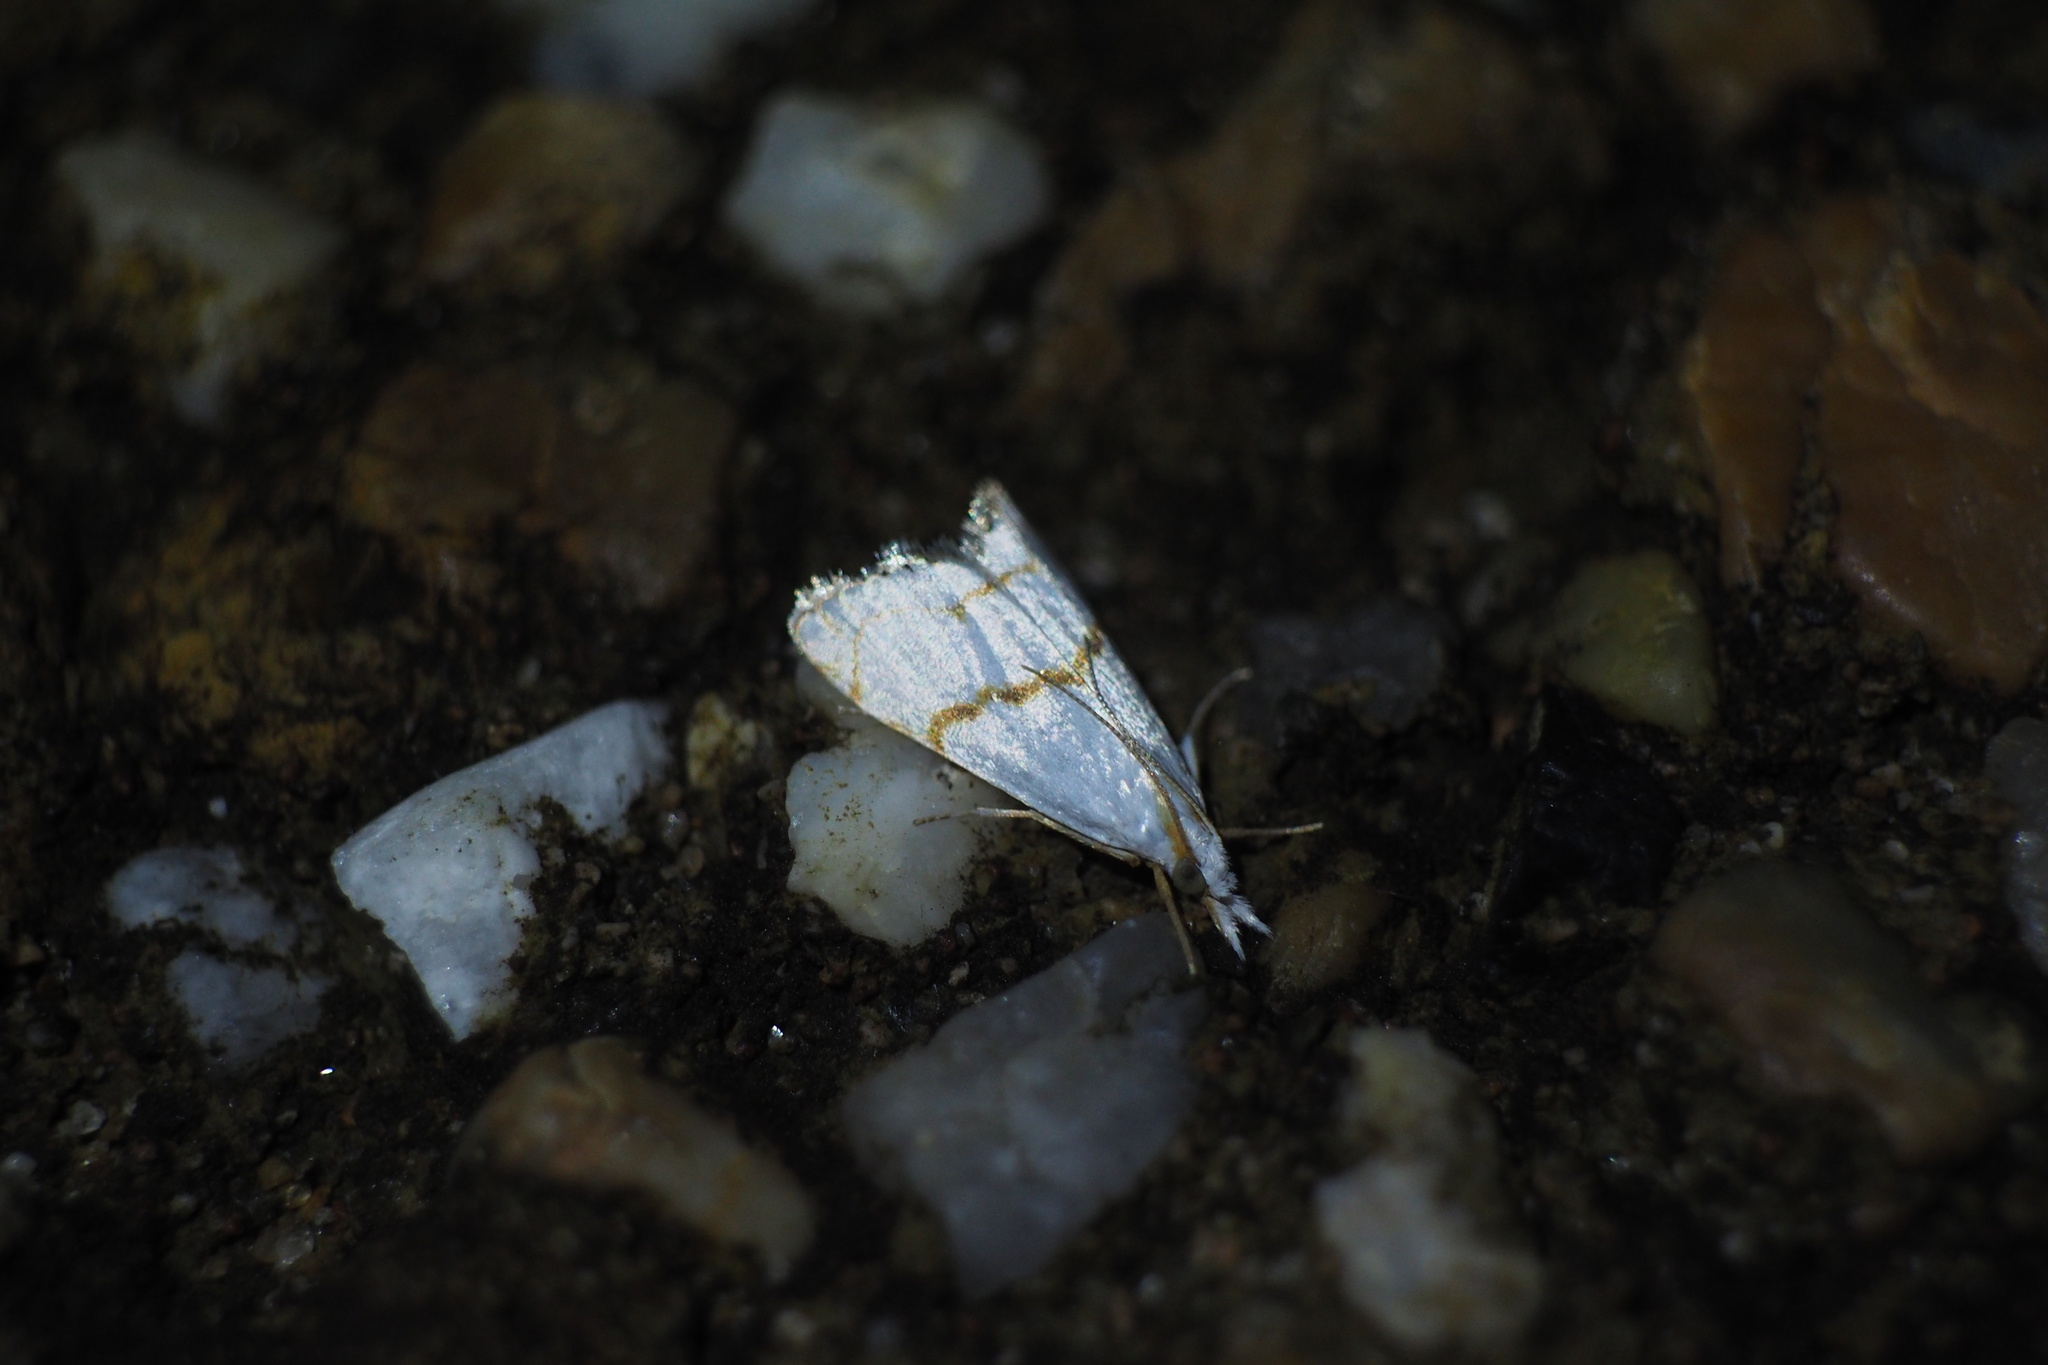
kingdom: Animalia
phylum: Arthropoda
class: Insecta
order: Lepidoptera
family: Crambidae
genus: Pseudargyria
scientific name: Pseudargyria interruptella
